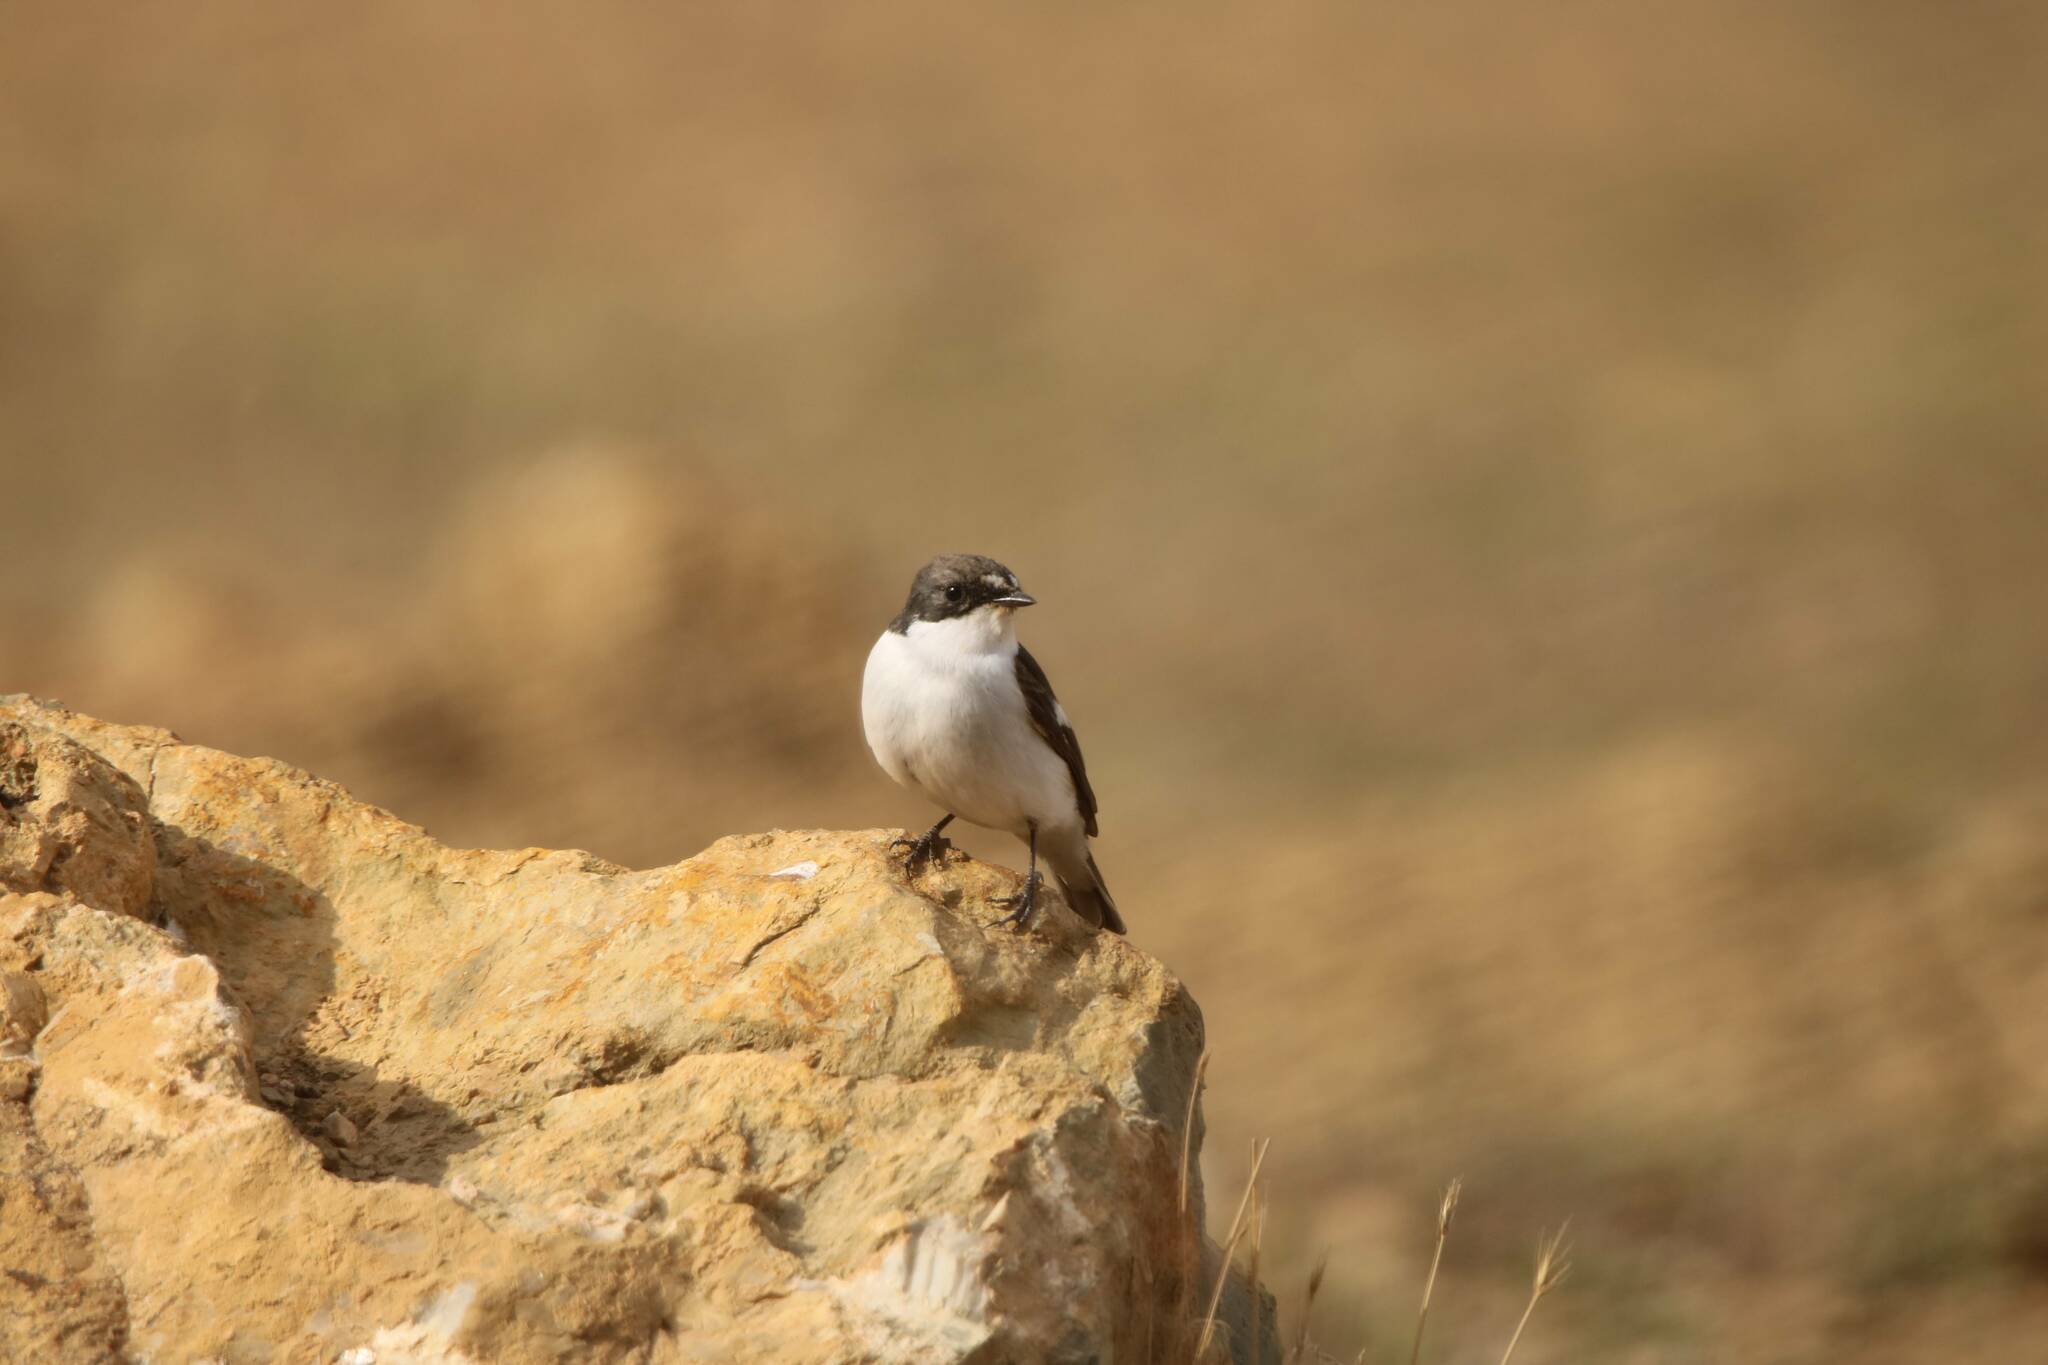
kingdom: Animalia
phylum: Chordata
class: Aves
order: Passeriformes
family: Muscicapidae
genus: Ficedula
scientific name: Ficedula hypoleuca
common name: European pied flycatcher
